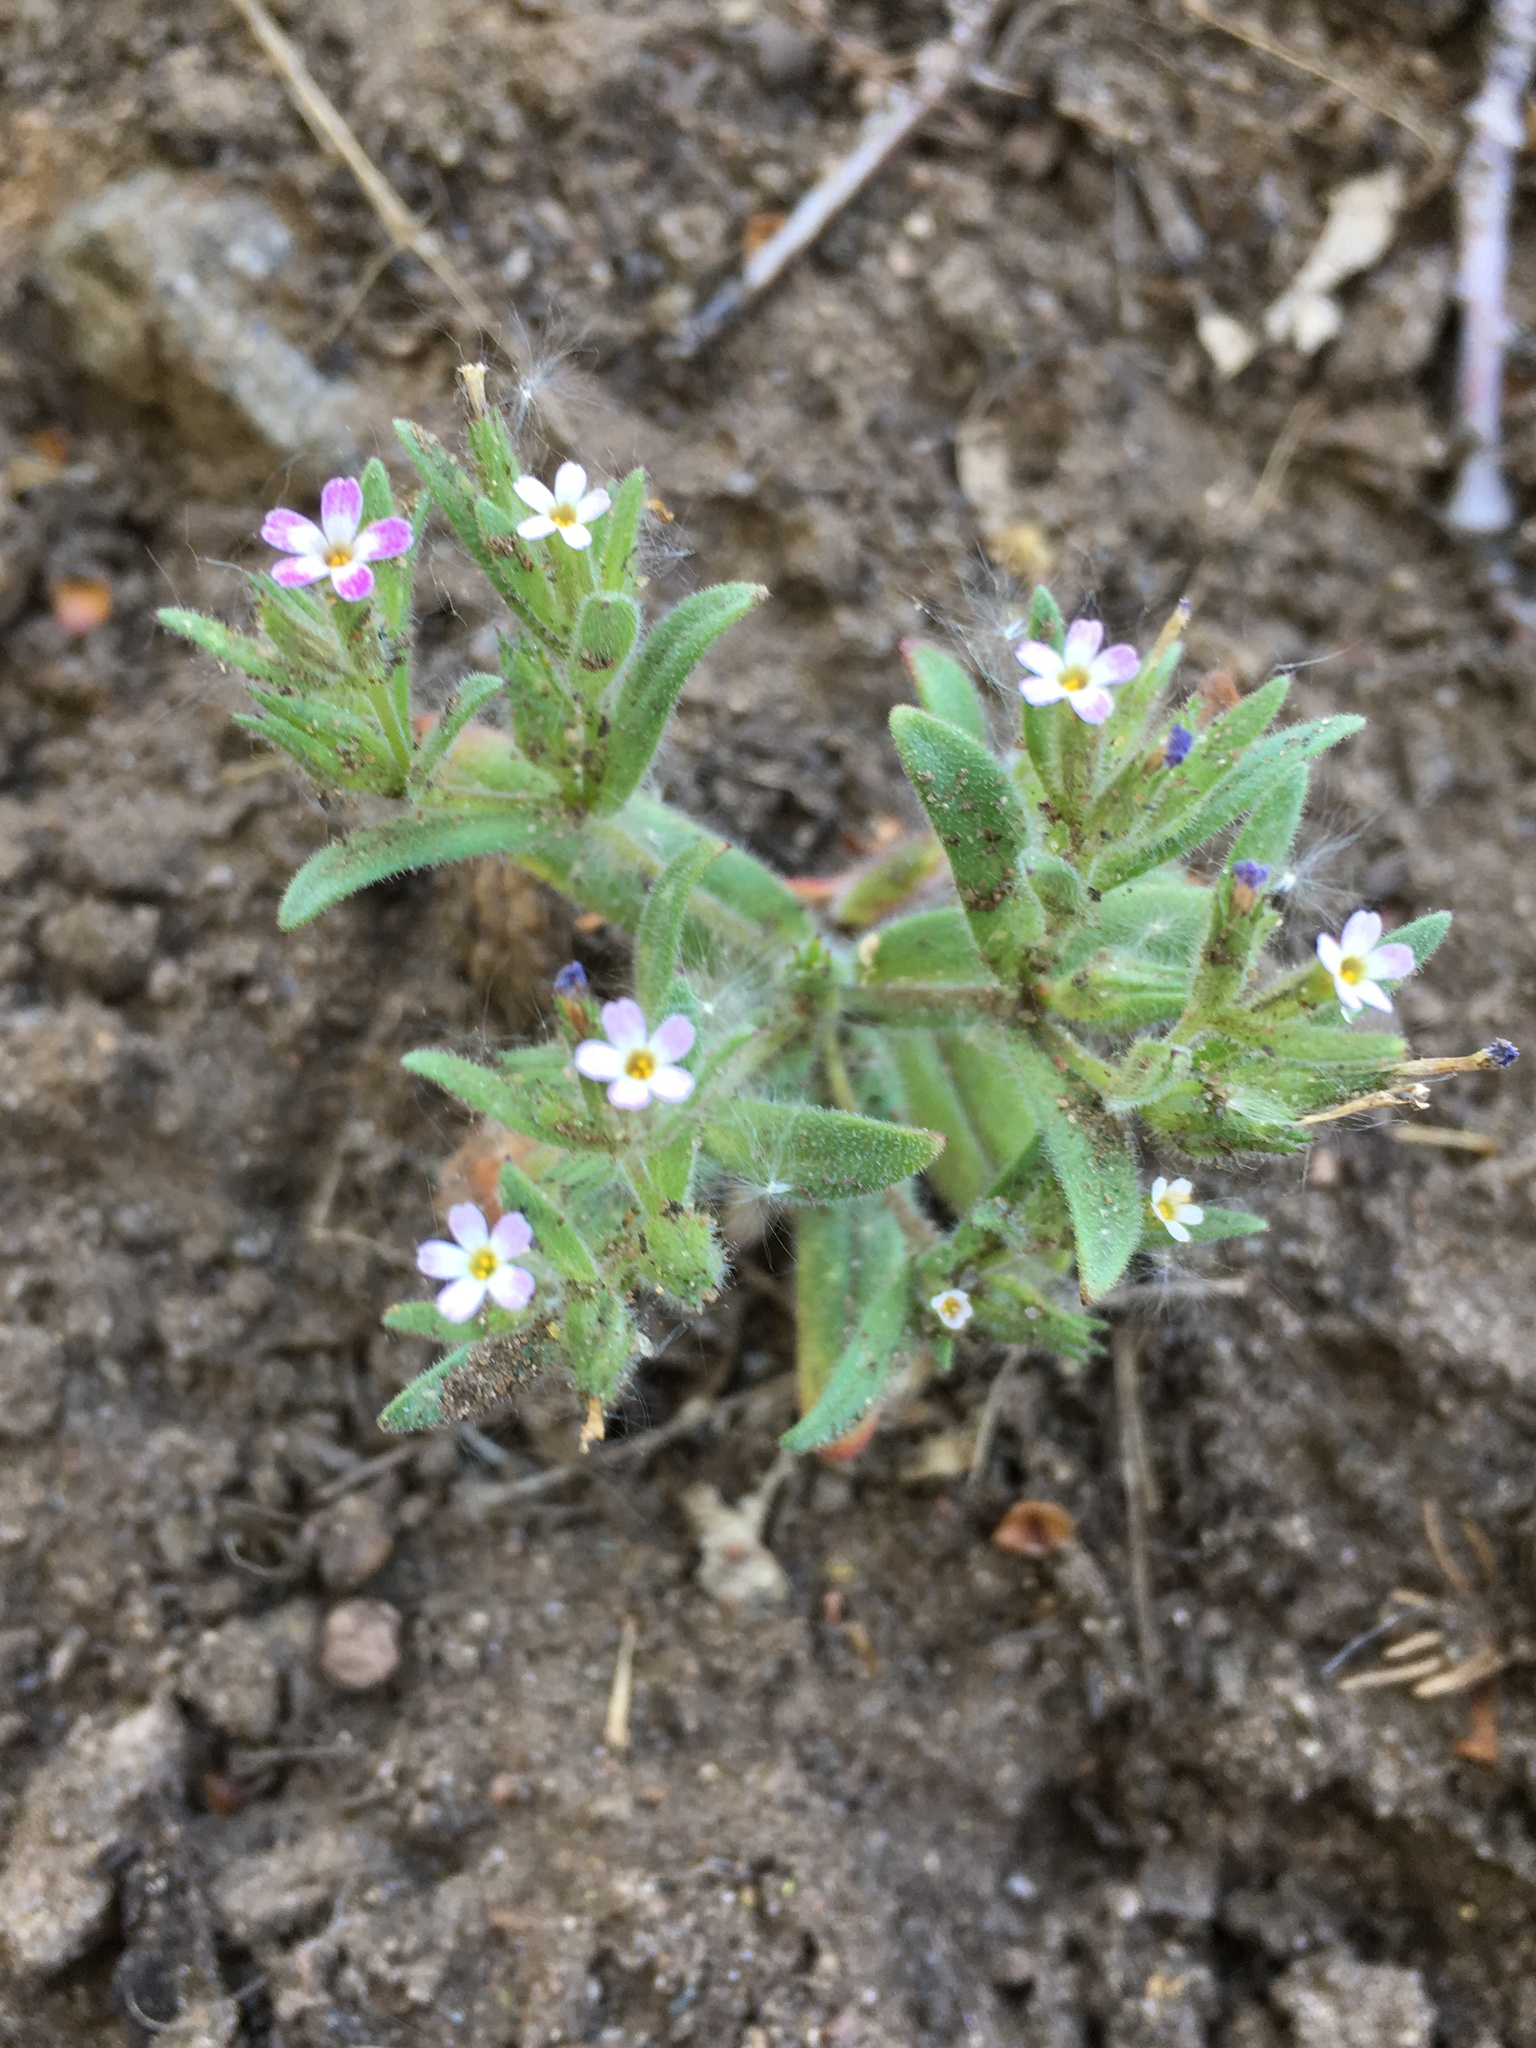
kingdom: Plantae
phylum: Tracheophyta
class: Magnoliopsida
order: Ericales
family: Polemoniaceae
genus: Phlox
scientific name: Phlox gracilis
